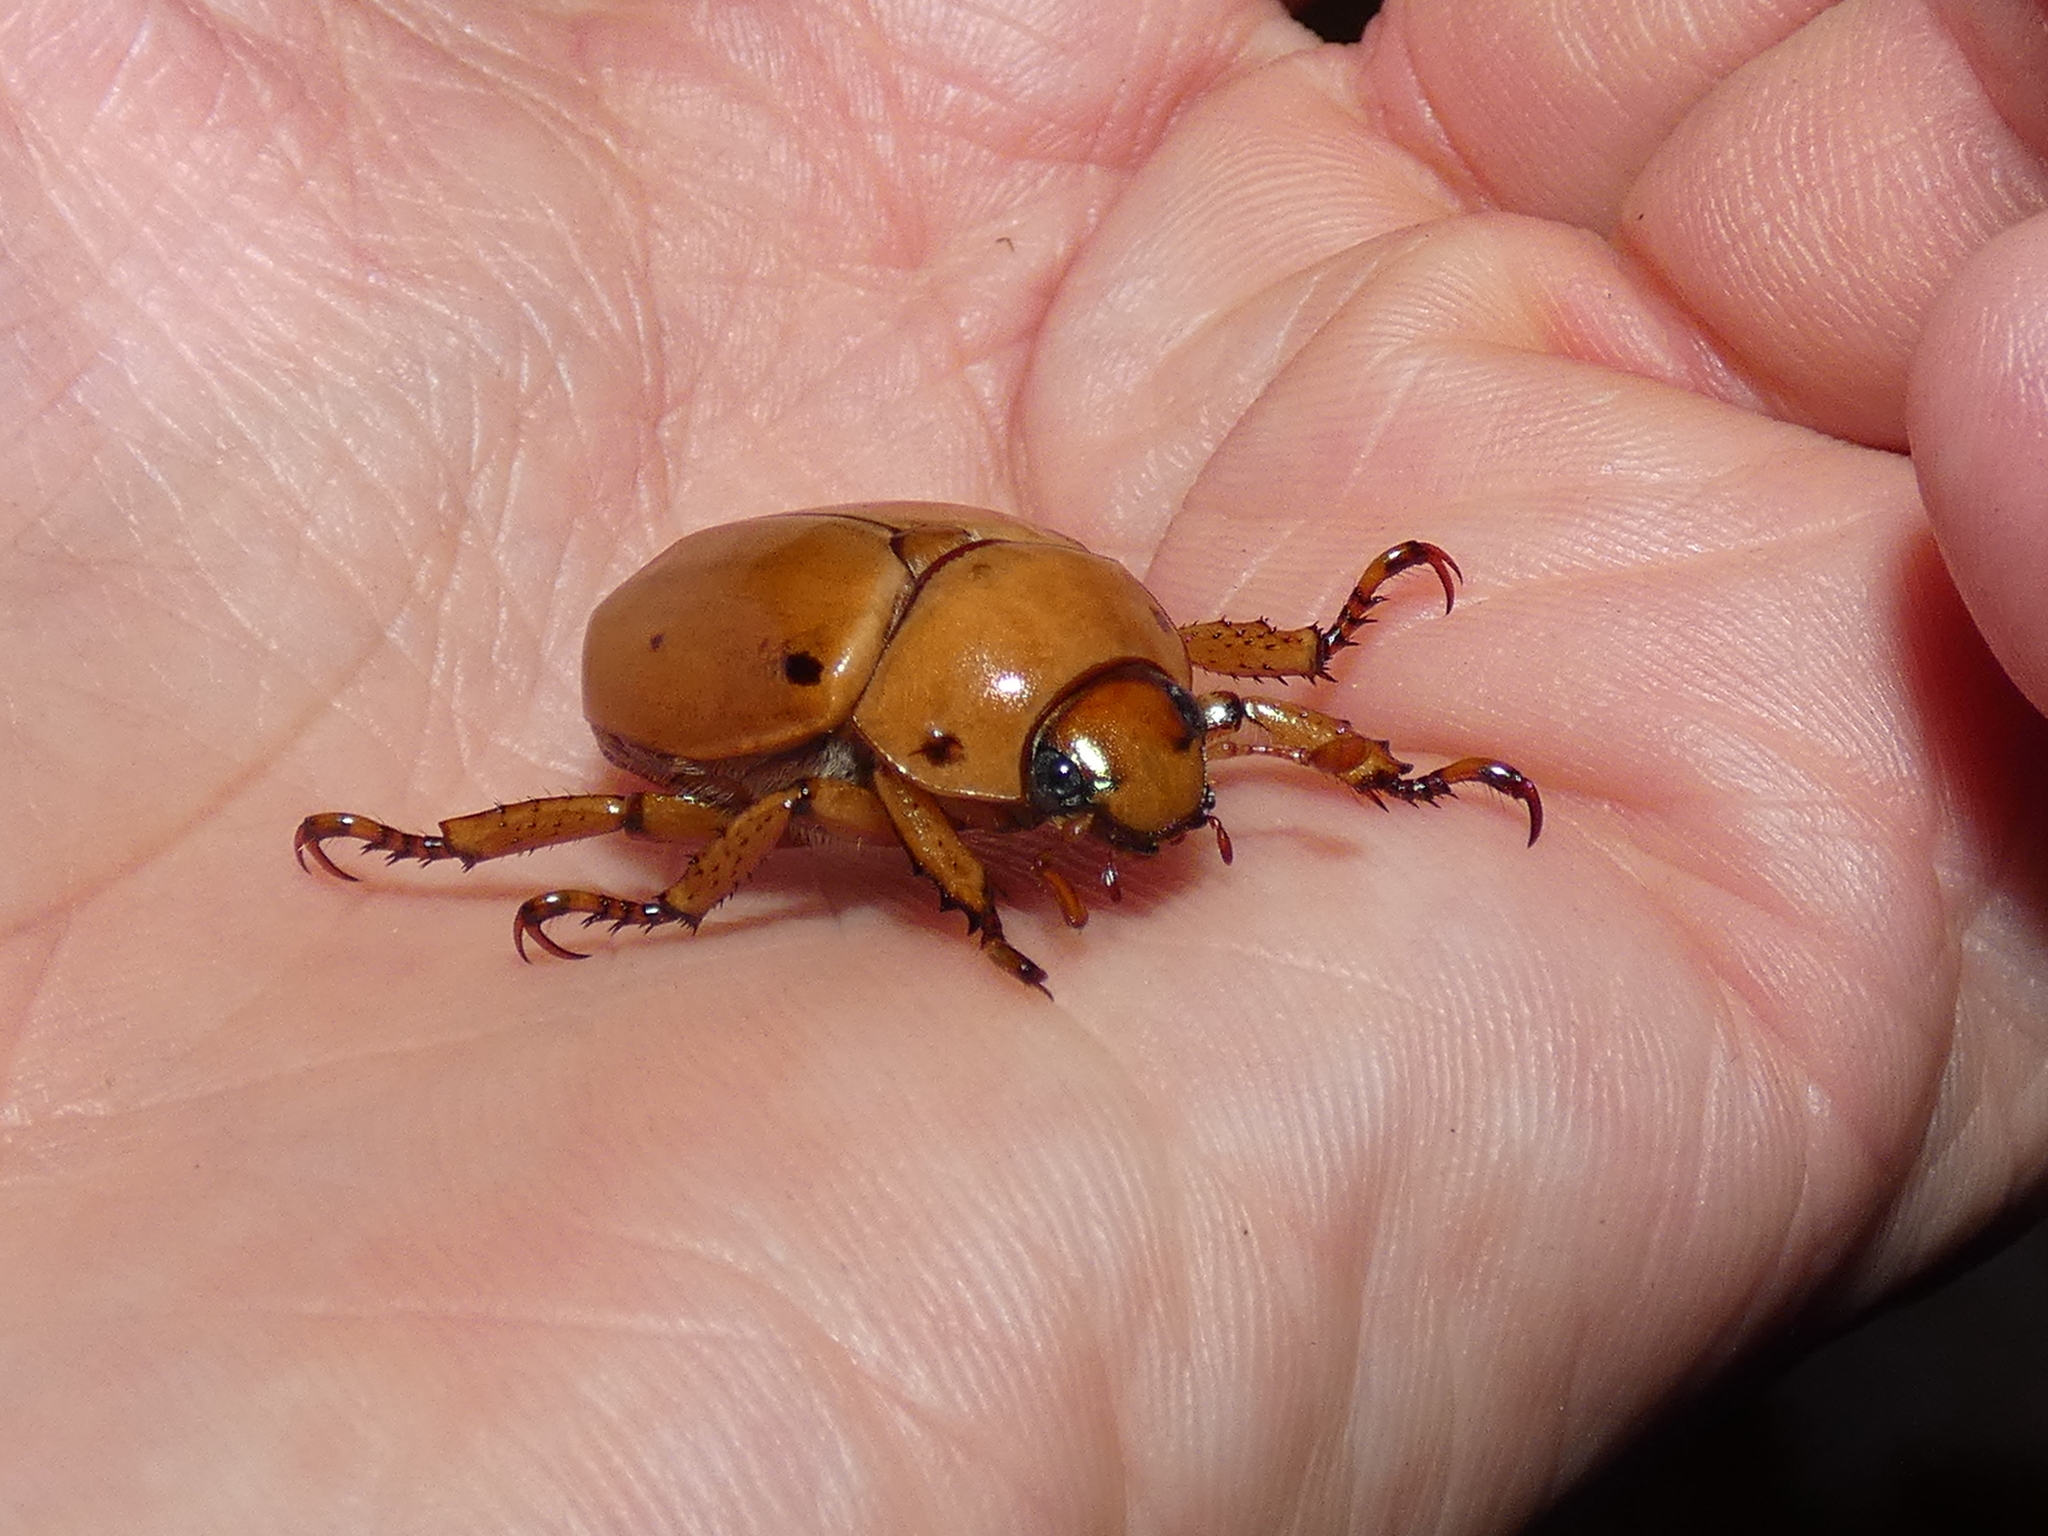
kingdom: Animalia
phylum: Arthropoda
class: Insecta
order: Coleoptera
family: Scarabaeidae
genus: Pelidnota
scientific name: Pelidnota punctata
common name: Grapevine beetle
